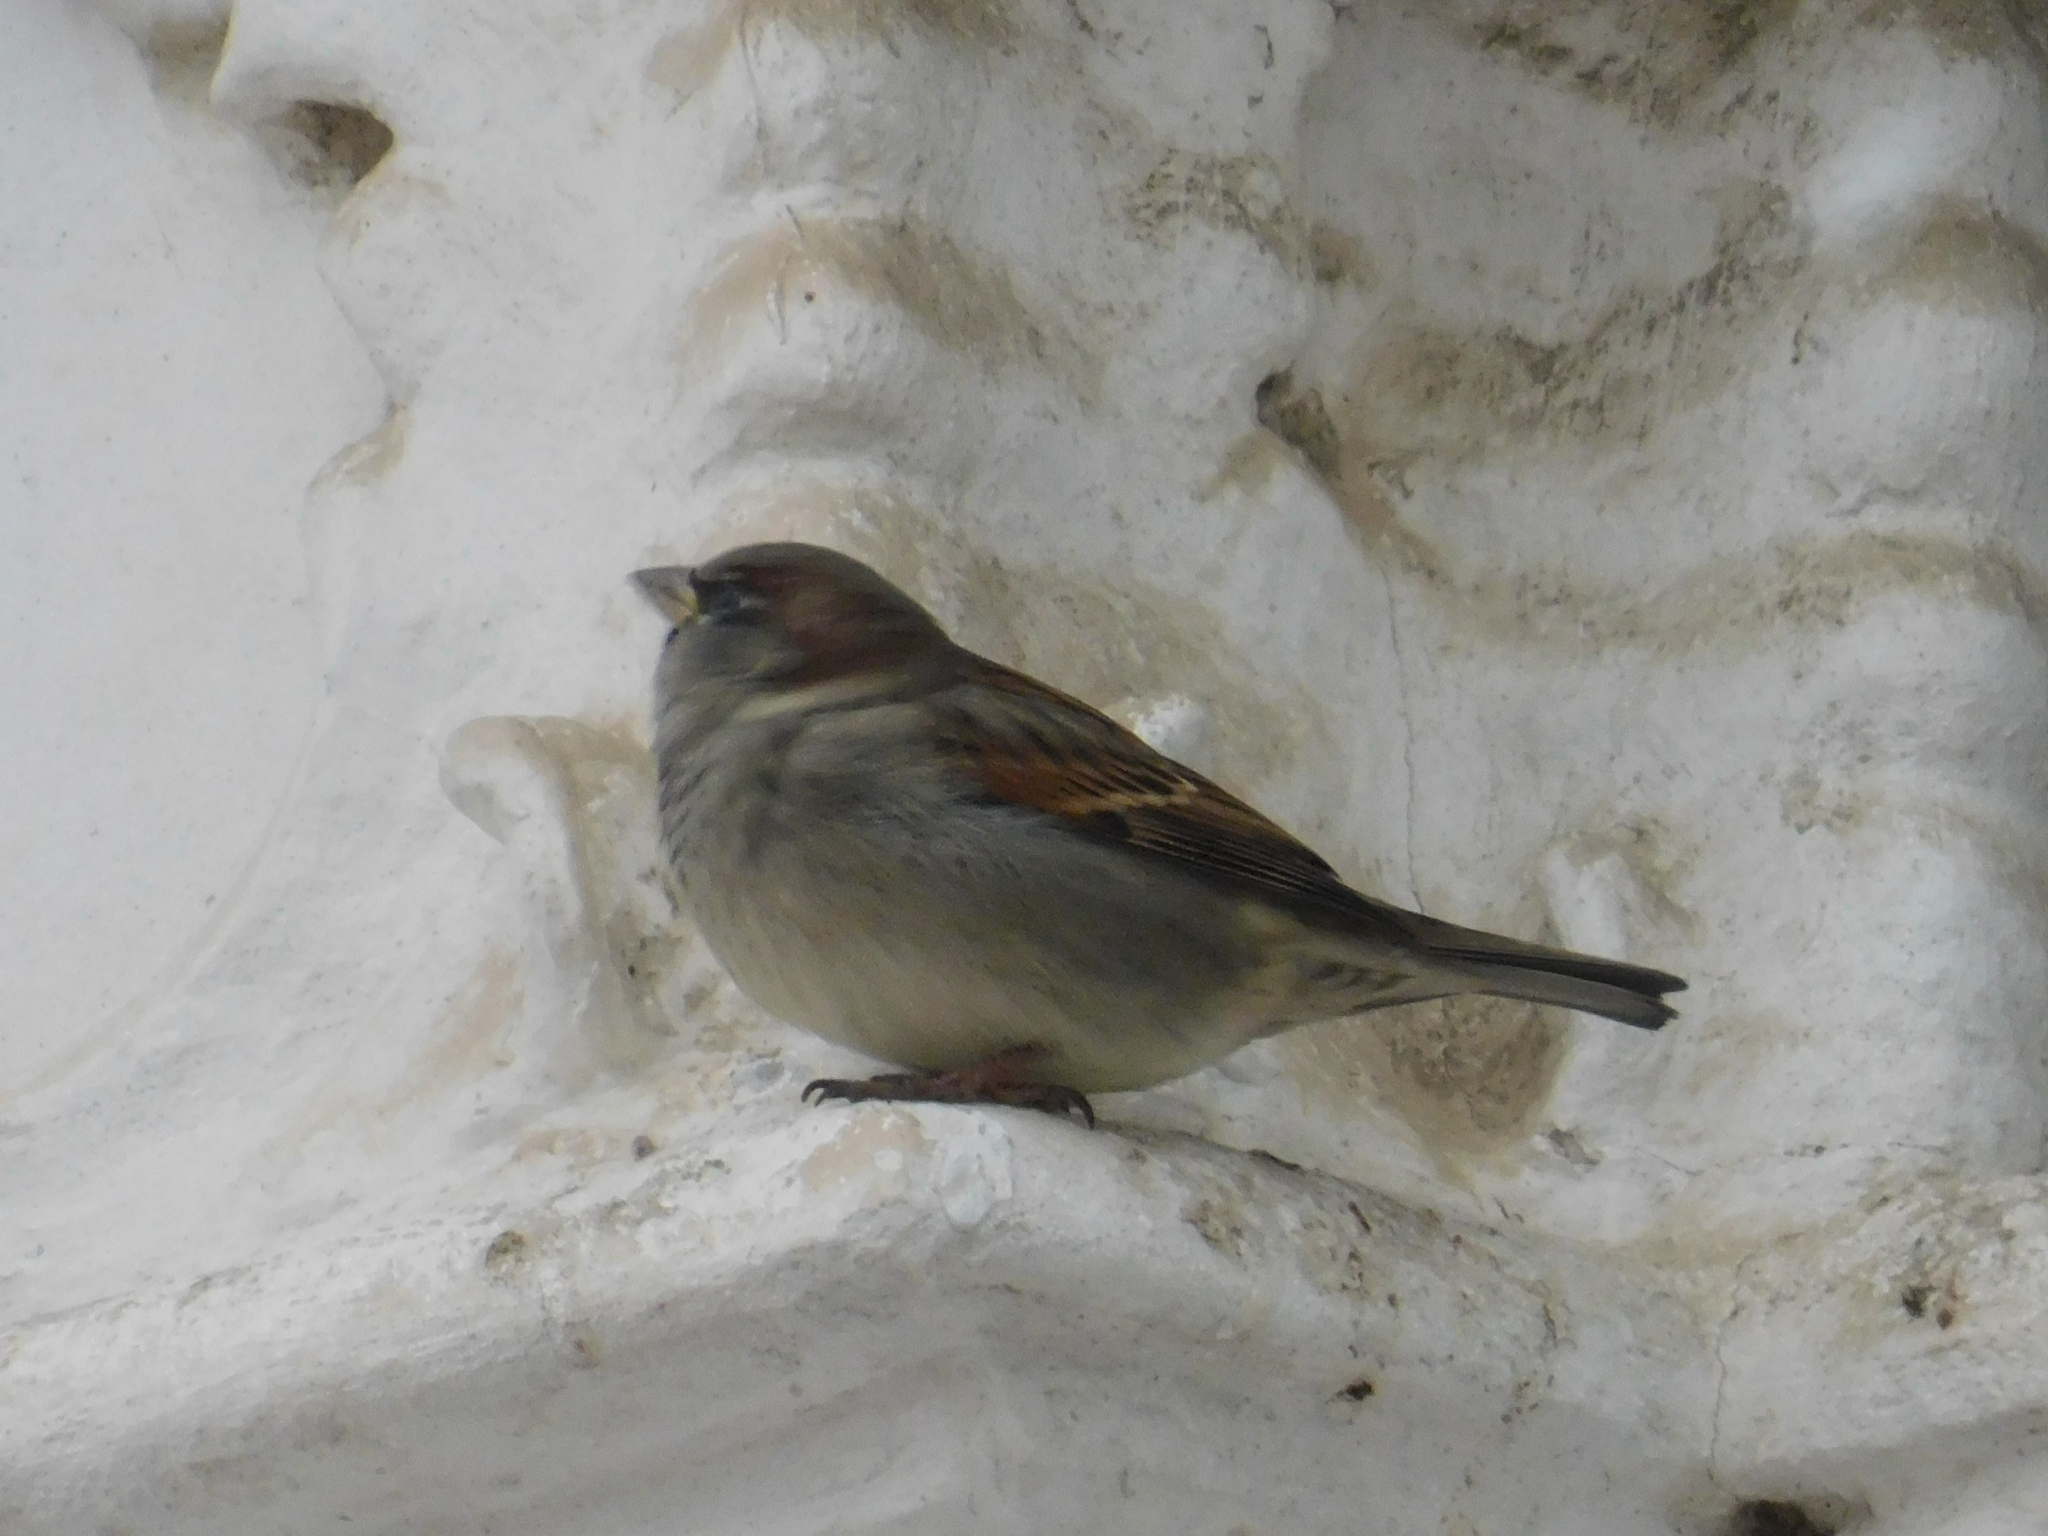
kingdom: Animalia
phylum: Chordata
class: Aves
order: Passeriformes
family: Passeridae
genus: Passer
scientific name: Passer domesticus
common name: House sparrow
